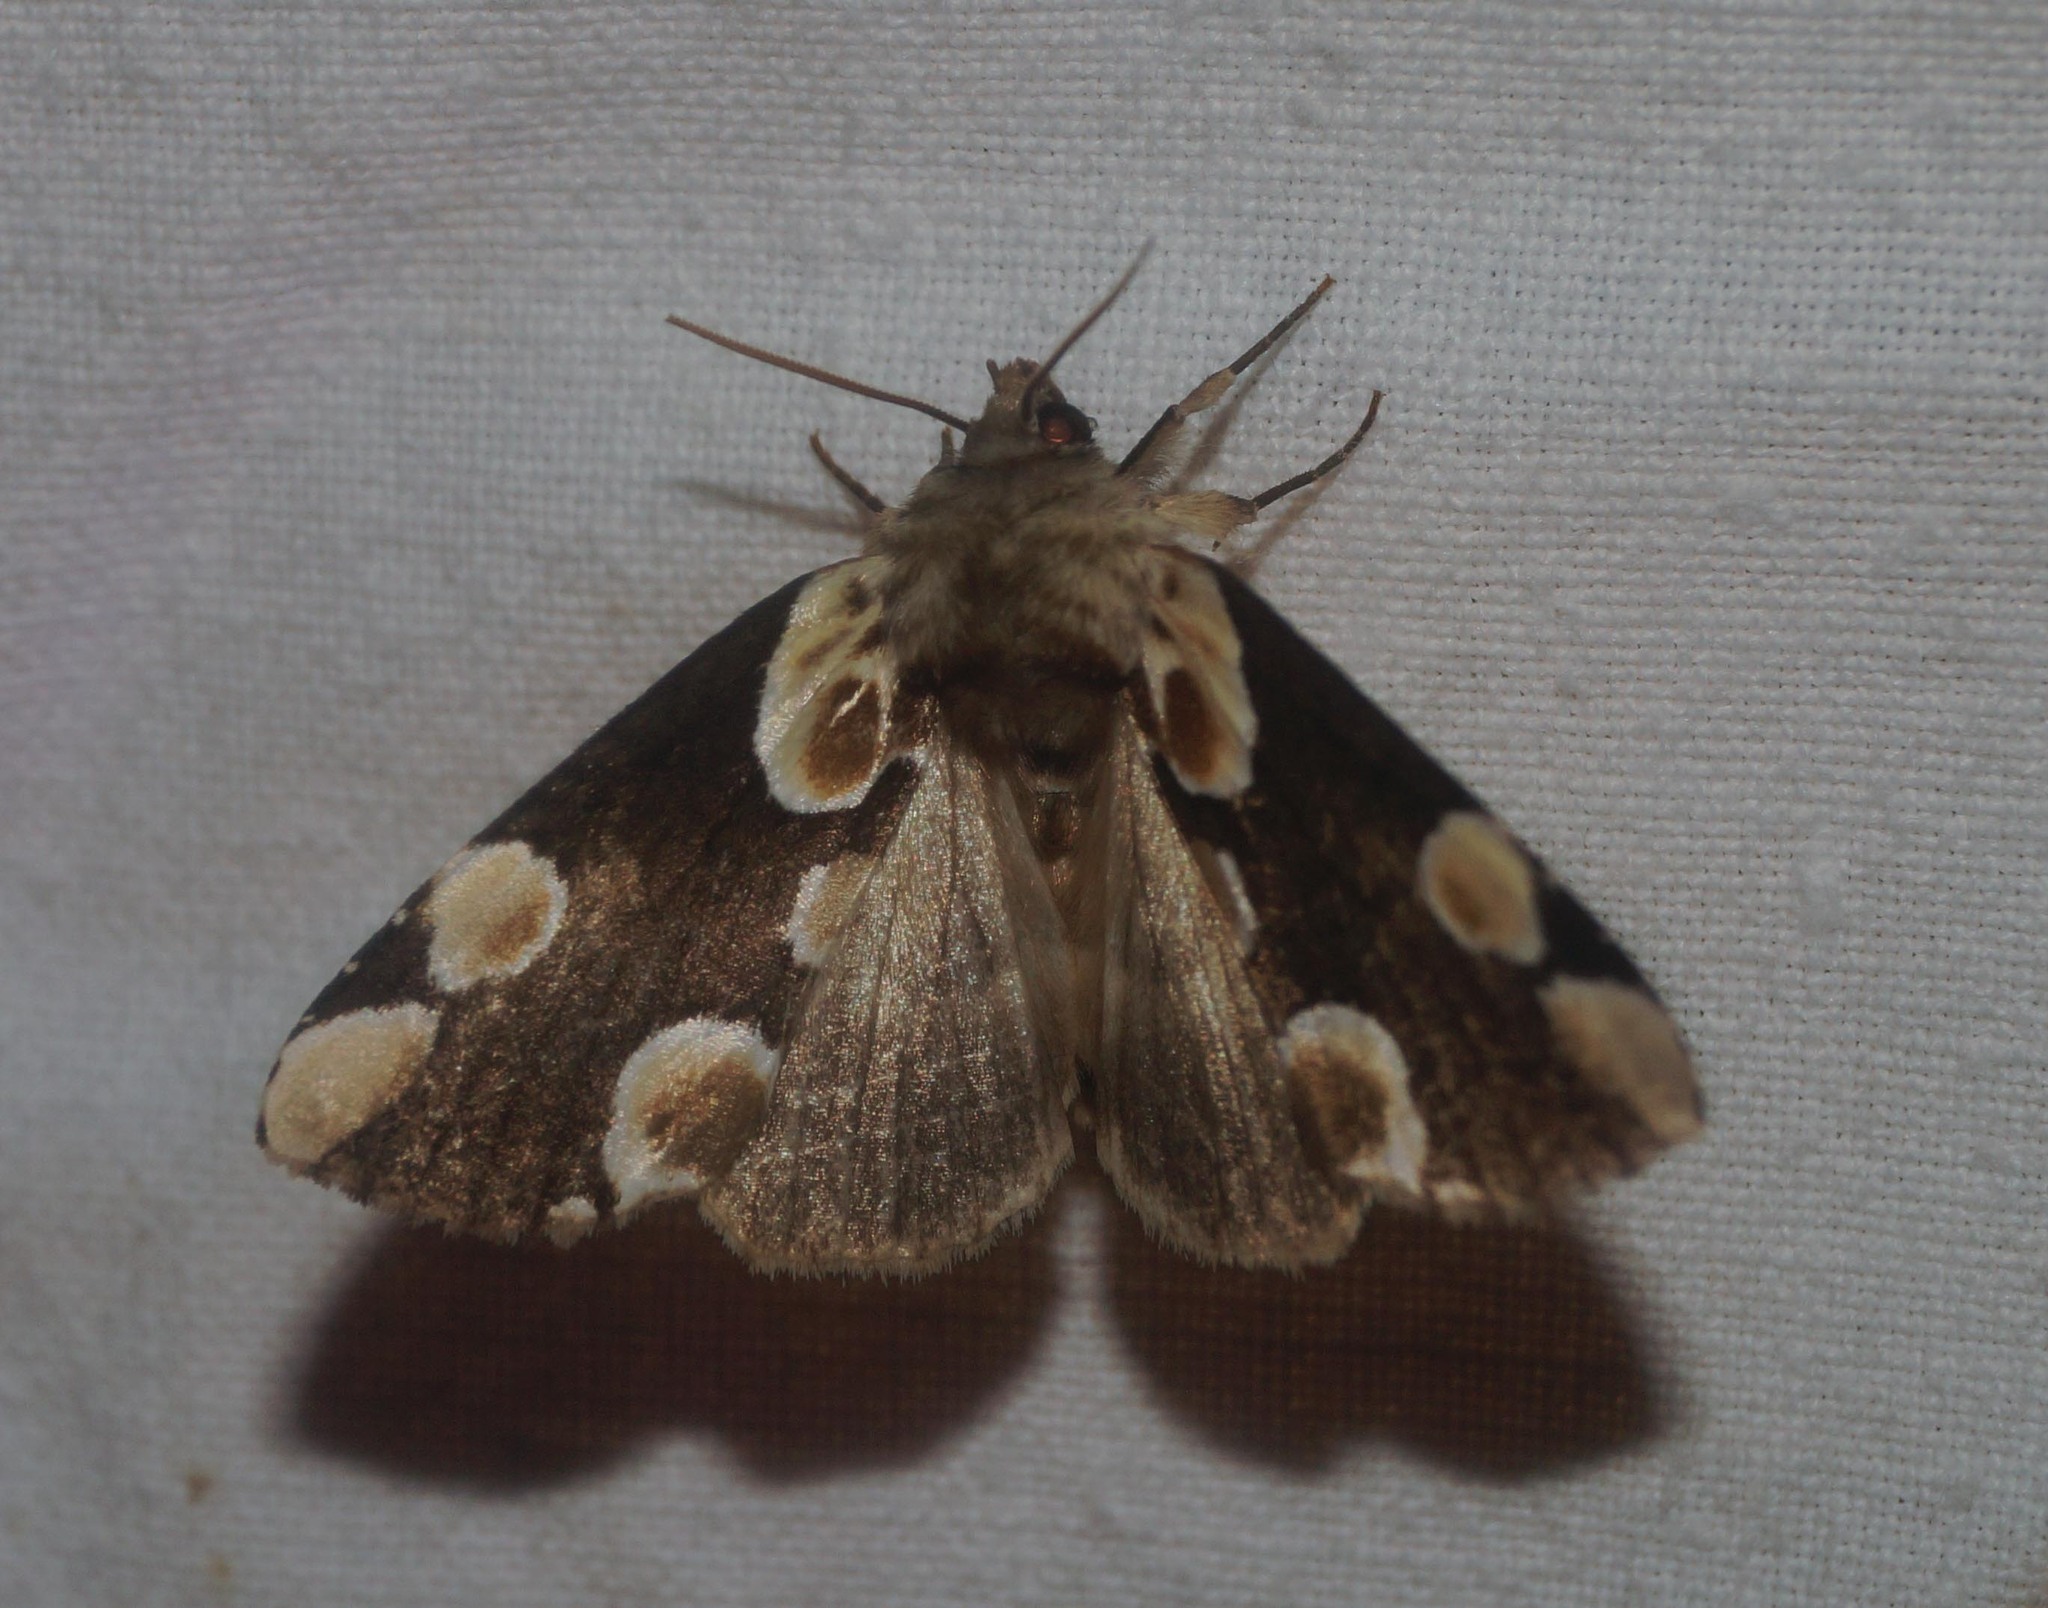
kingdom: Animalia
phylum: Arthropoda
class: Insecta
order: Lepidoptera
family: Drepanidae
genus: Thyatira
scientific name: Thyatira batis
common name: Peach blossom
